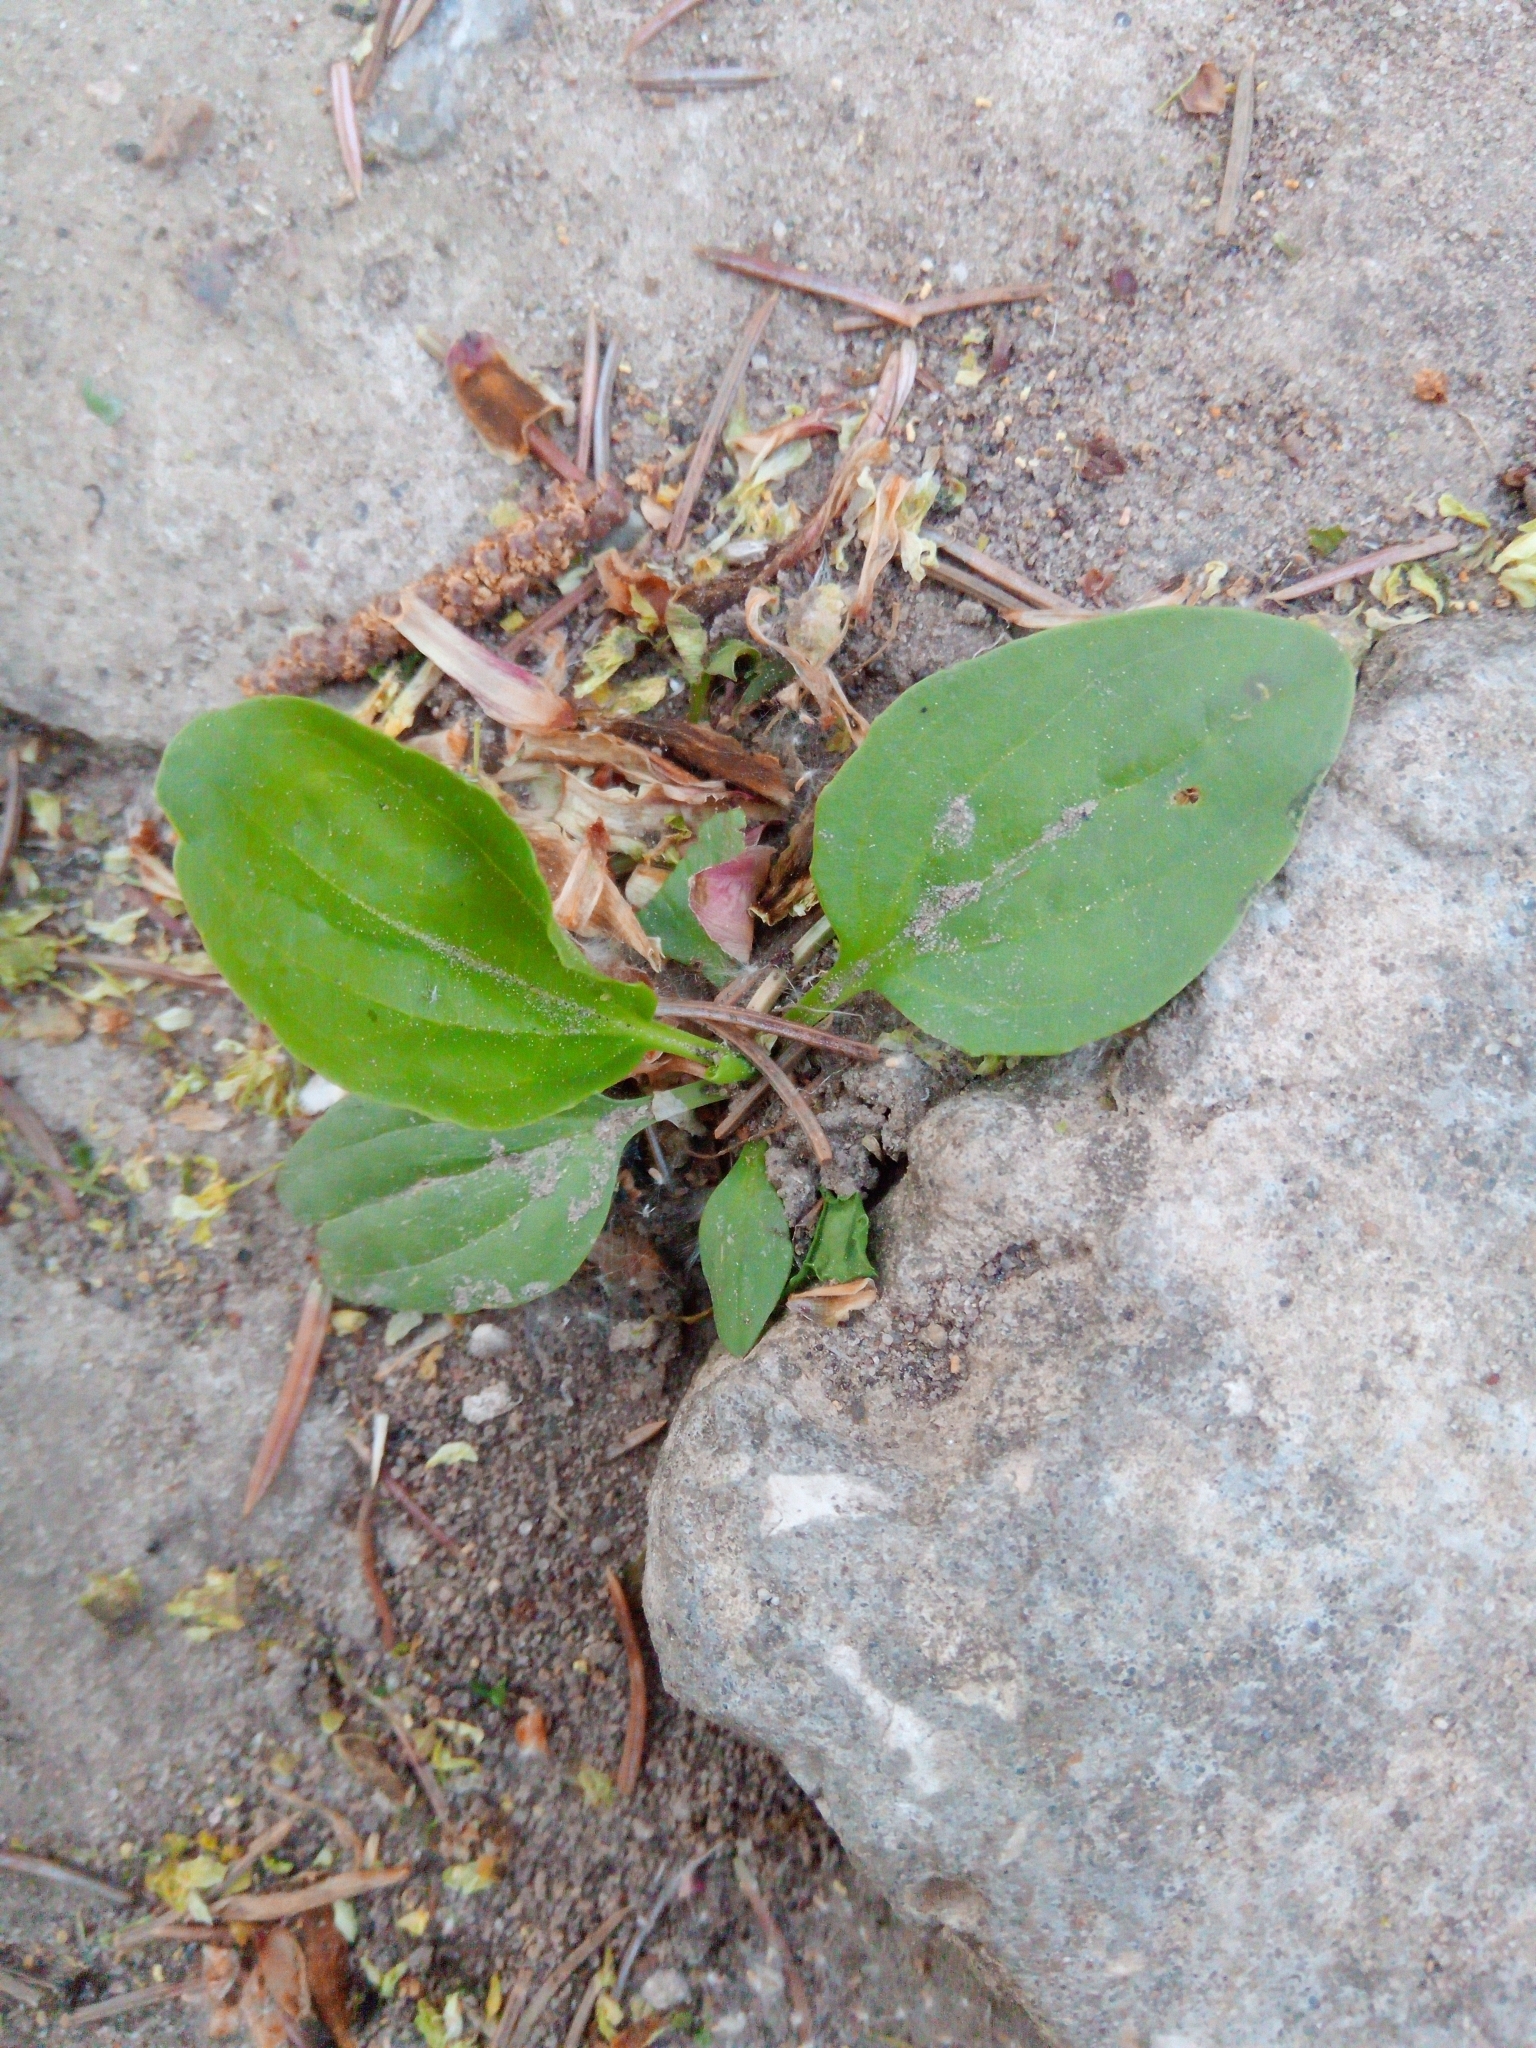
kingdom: Plantae
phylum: Tracheophyta
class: Magnoliopsida
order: Lamiales
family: Plantaginaceae
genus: Plantago
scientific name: Plantago major
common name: Common plantain
